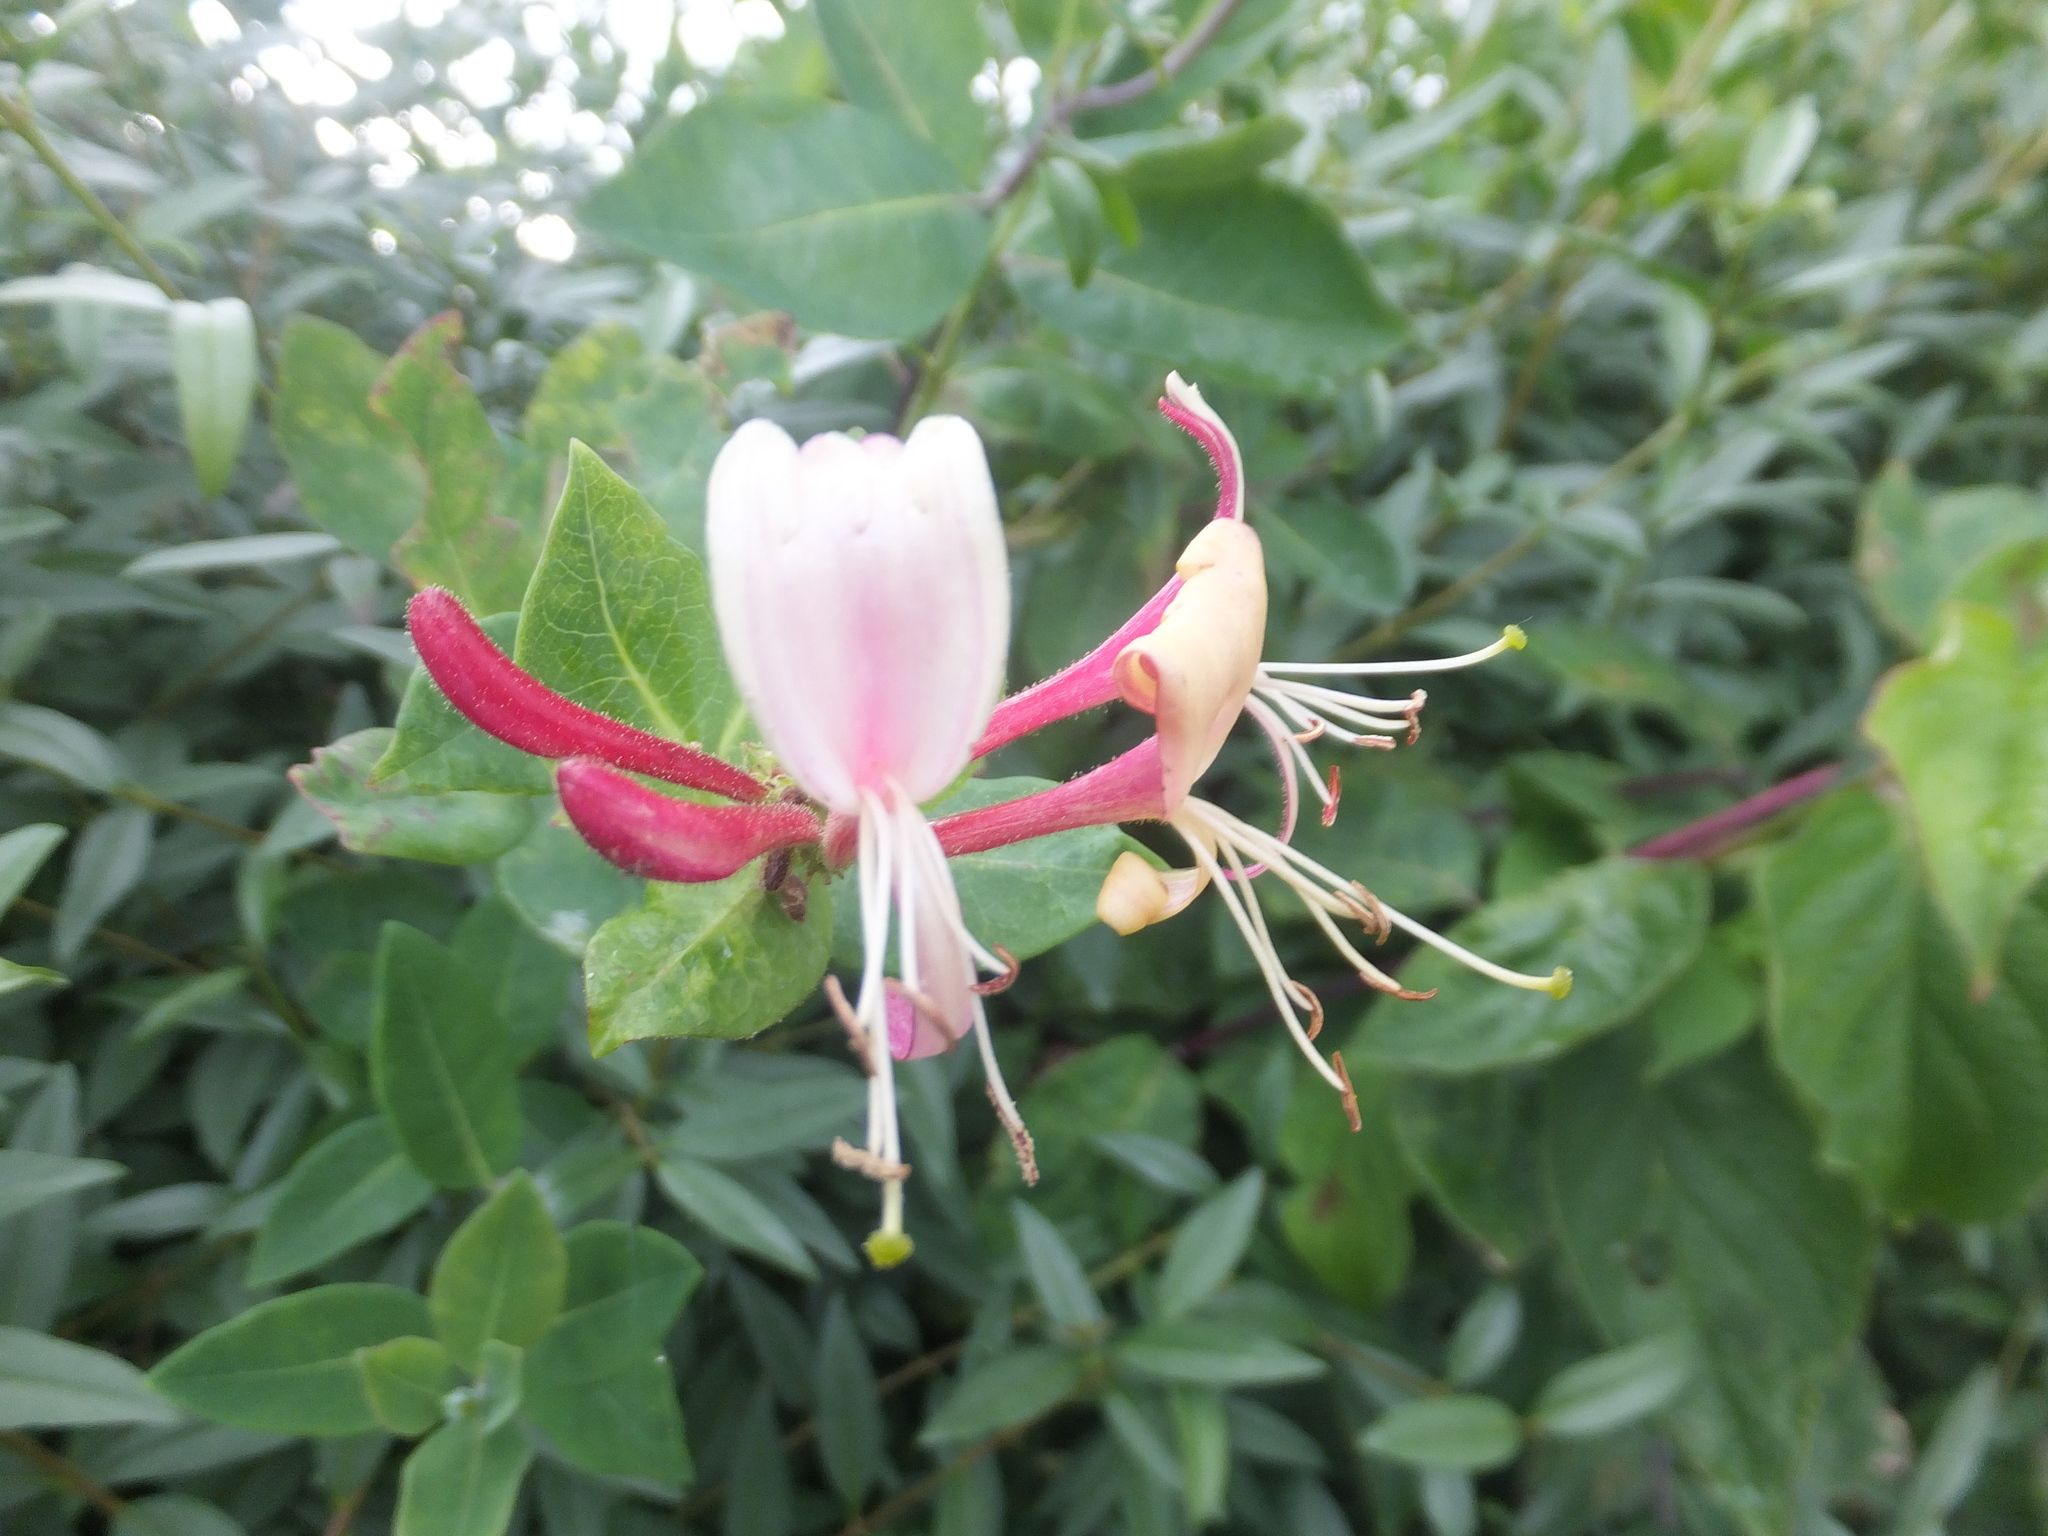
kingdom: Plantae
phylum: Tracheophyta
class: Magnoliopsida
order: Dipsacales
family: Caprifoliaceae
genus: Lonicera
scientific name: Lonicera periclymenum
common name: European honeysuckle
